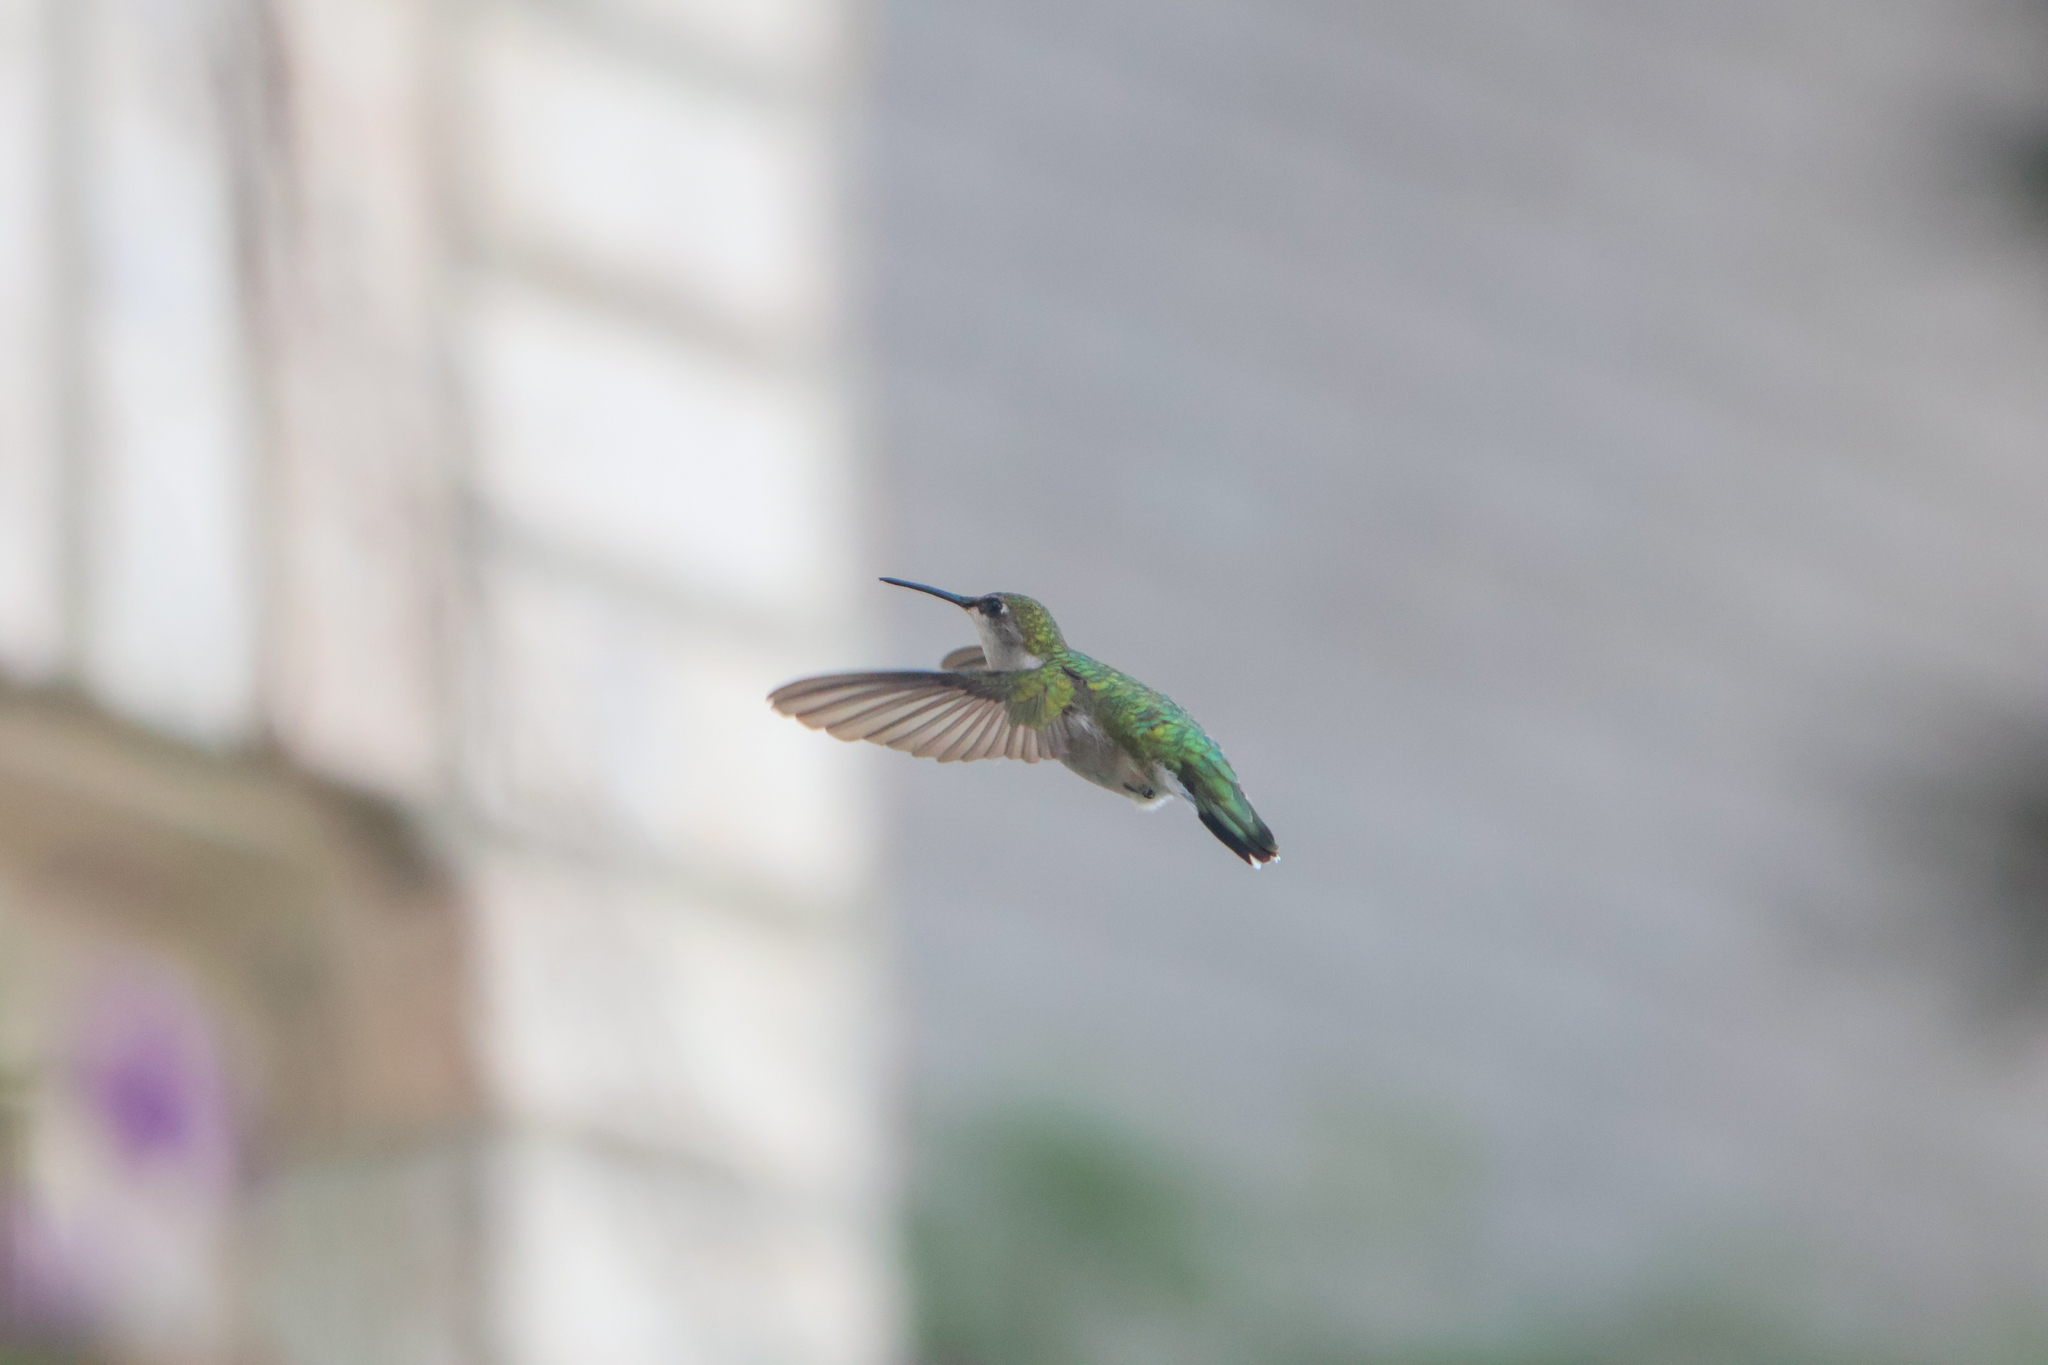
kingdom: Animalia
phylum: Chordata
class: Aves
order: Apodiformes
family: Trochilidae
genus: Archilochus
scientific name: Archilochus colubris
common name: Ruby-throated hummingbird
